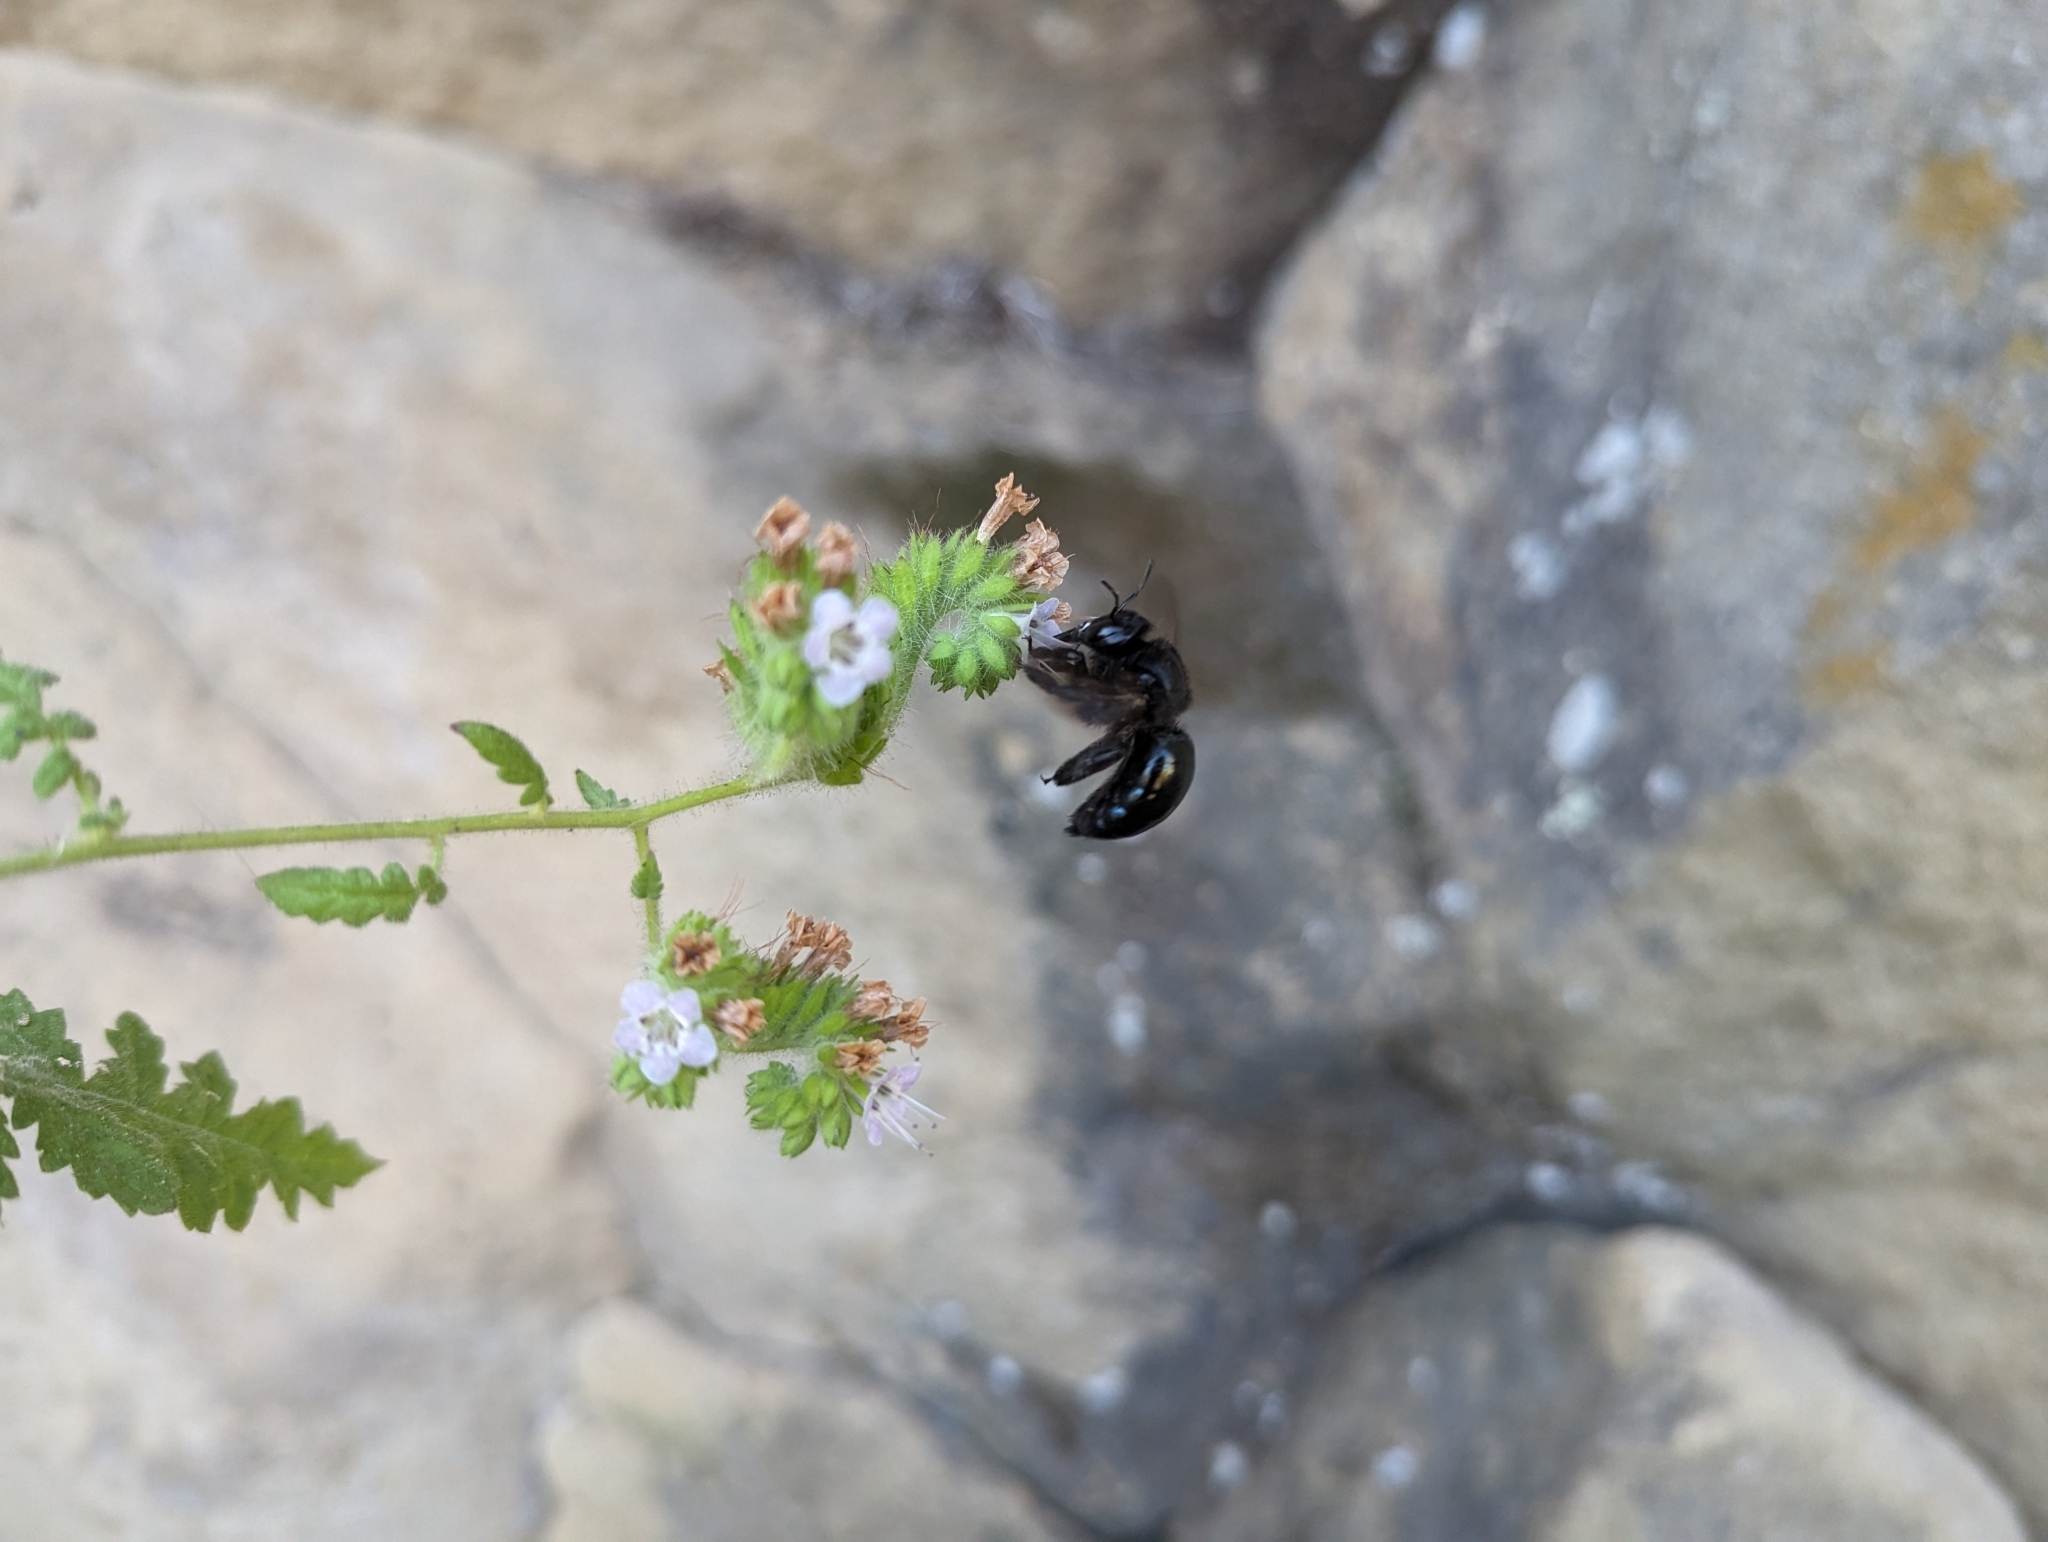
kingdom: Animalia
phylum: Arthropoda
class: Insecta
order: Hymenoptera
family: Apidae
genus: Xylocopa
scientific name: Xylocopa californica
